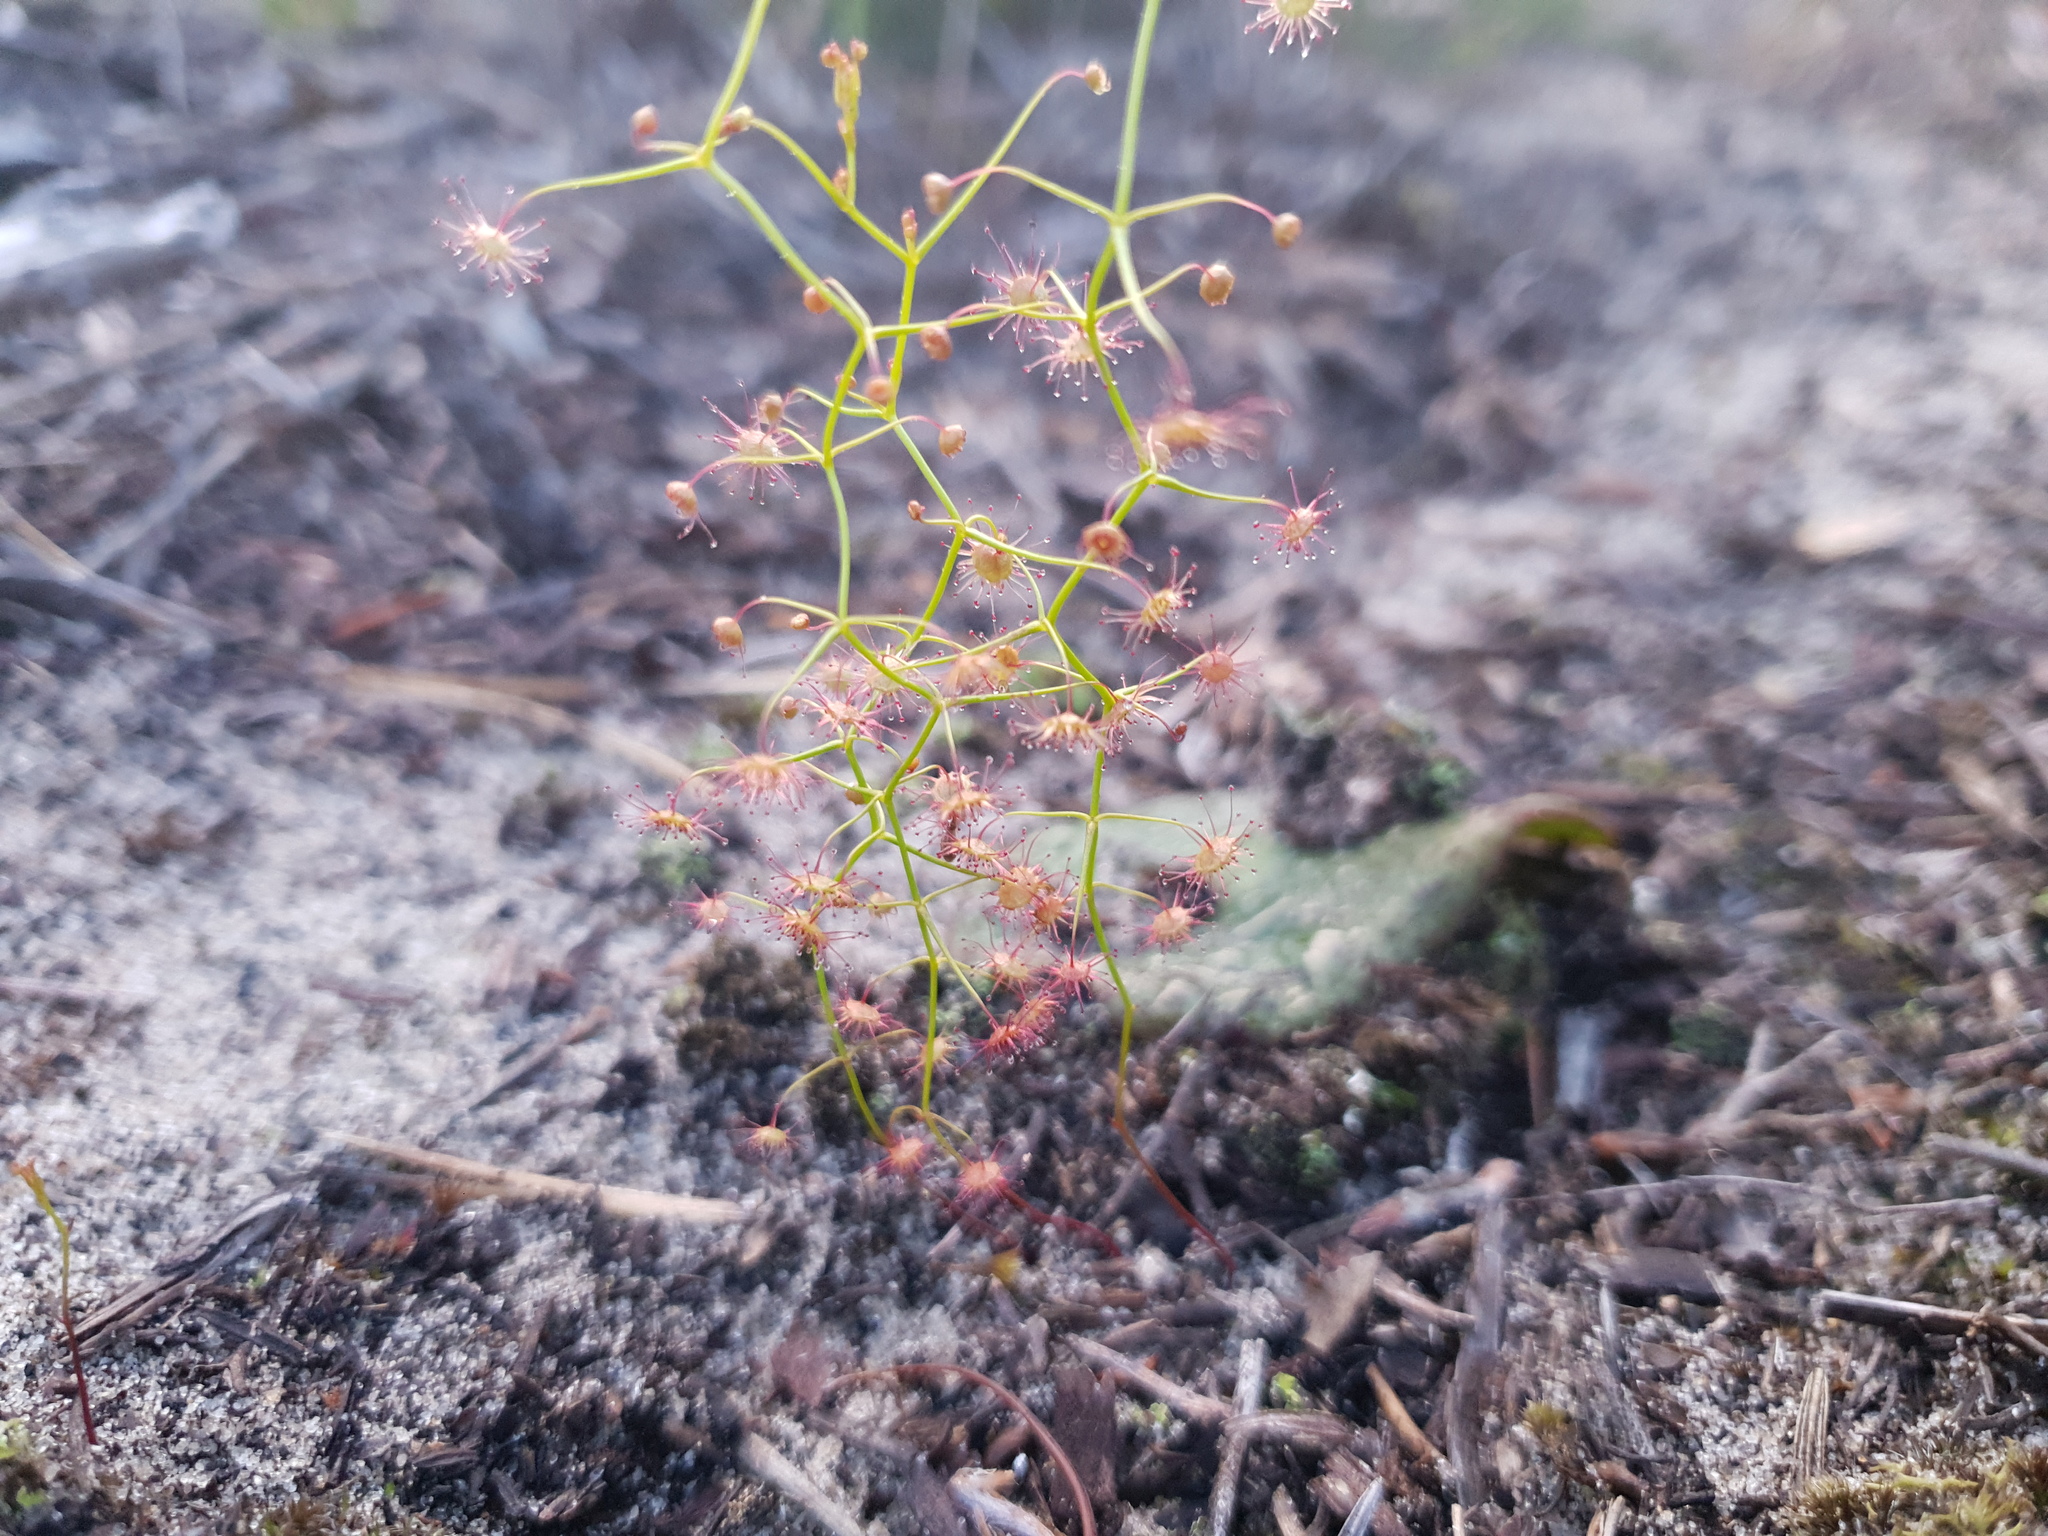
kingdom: Plantae
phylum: Tracheophyta
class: Magnoliopsida
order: Caryophyllales
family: Droseraceae
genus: Drosera
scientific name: Drosera pallida
